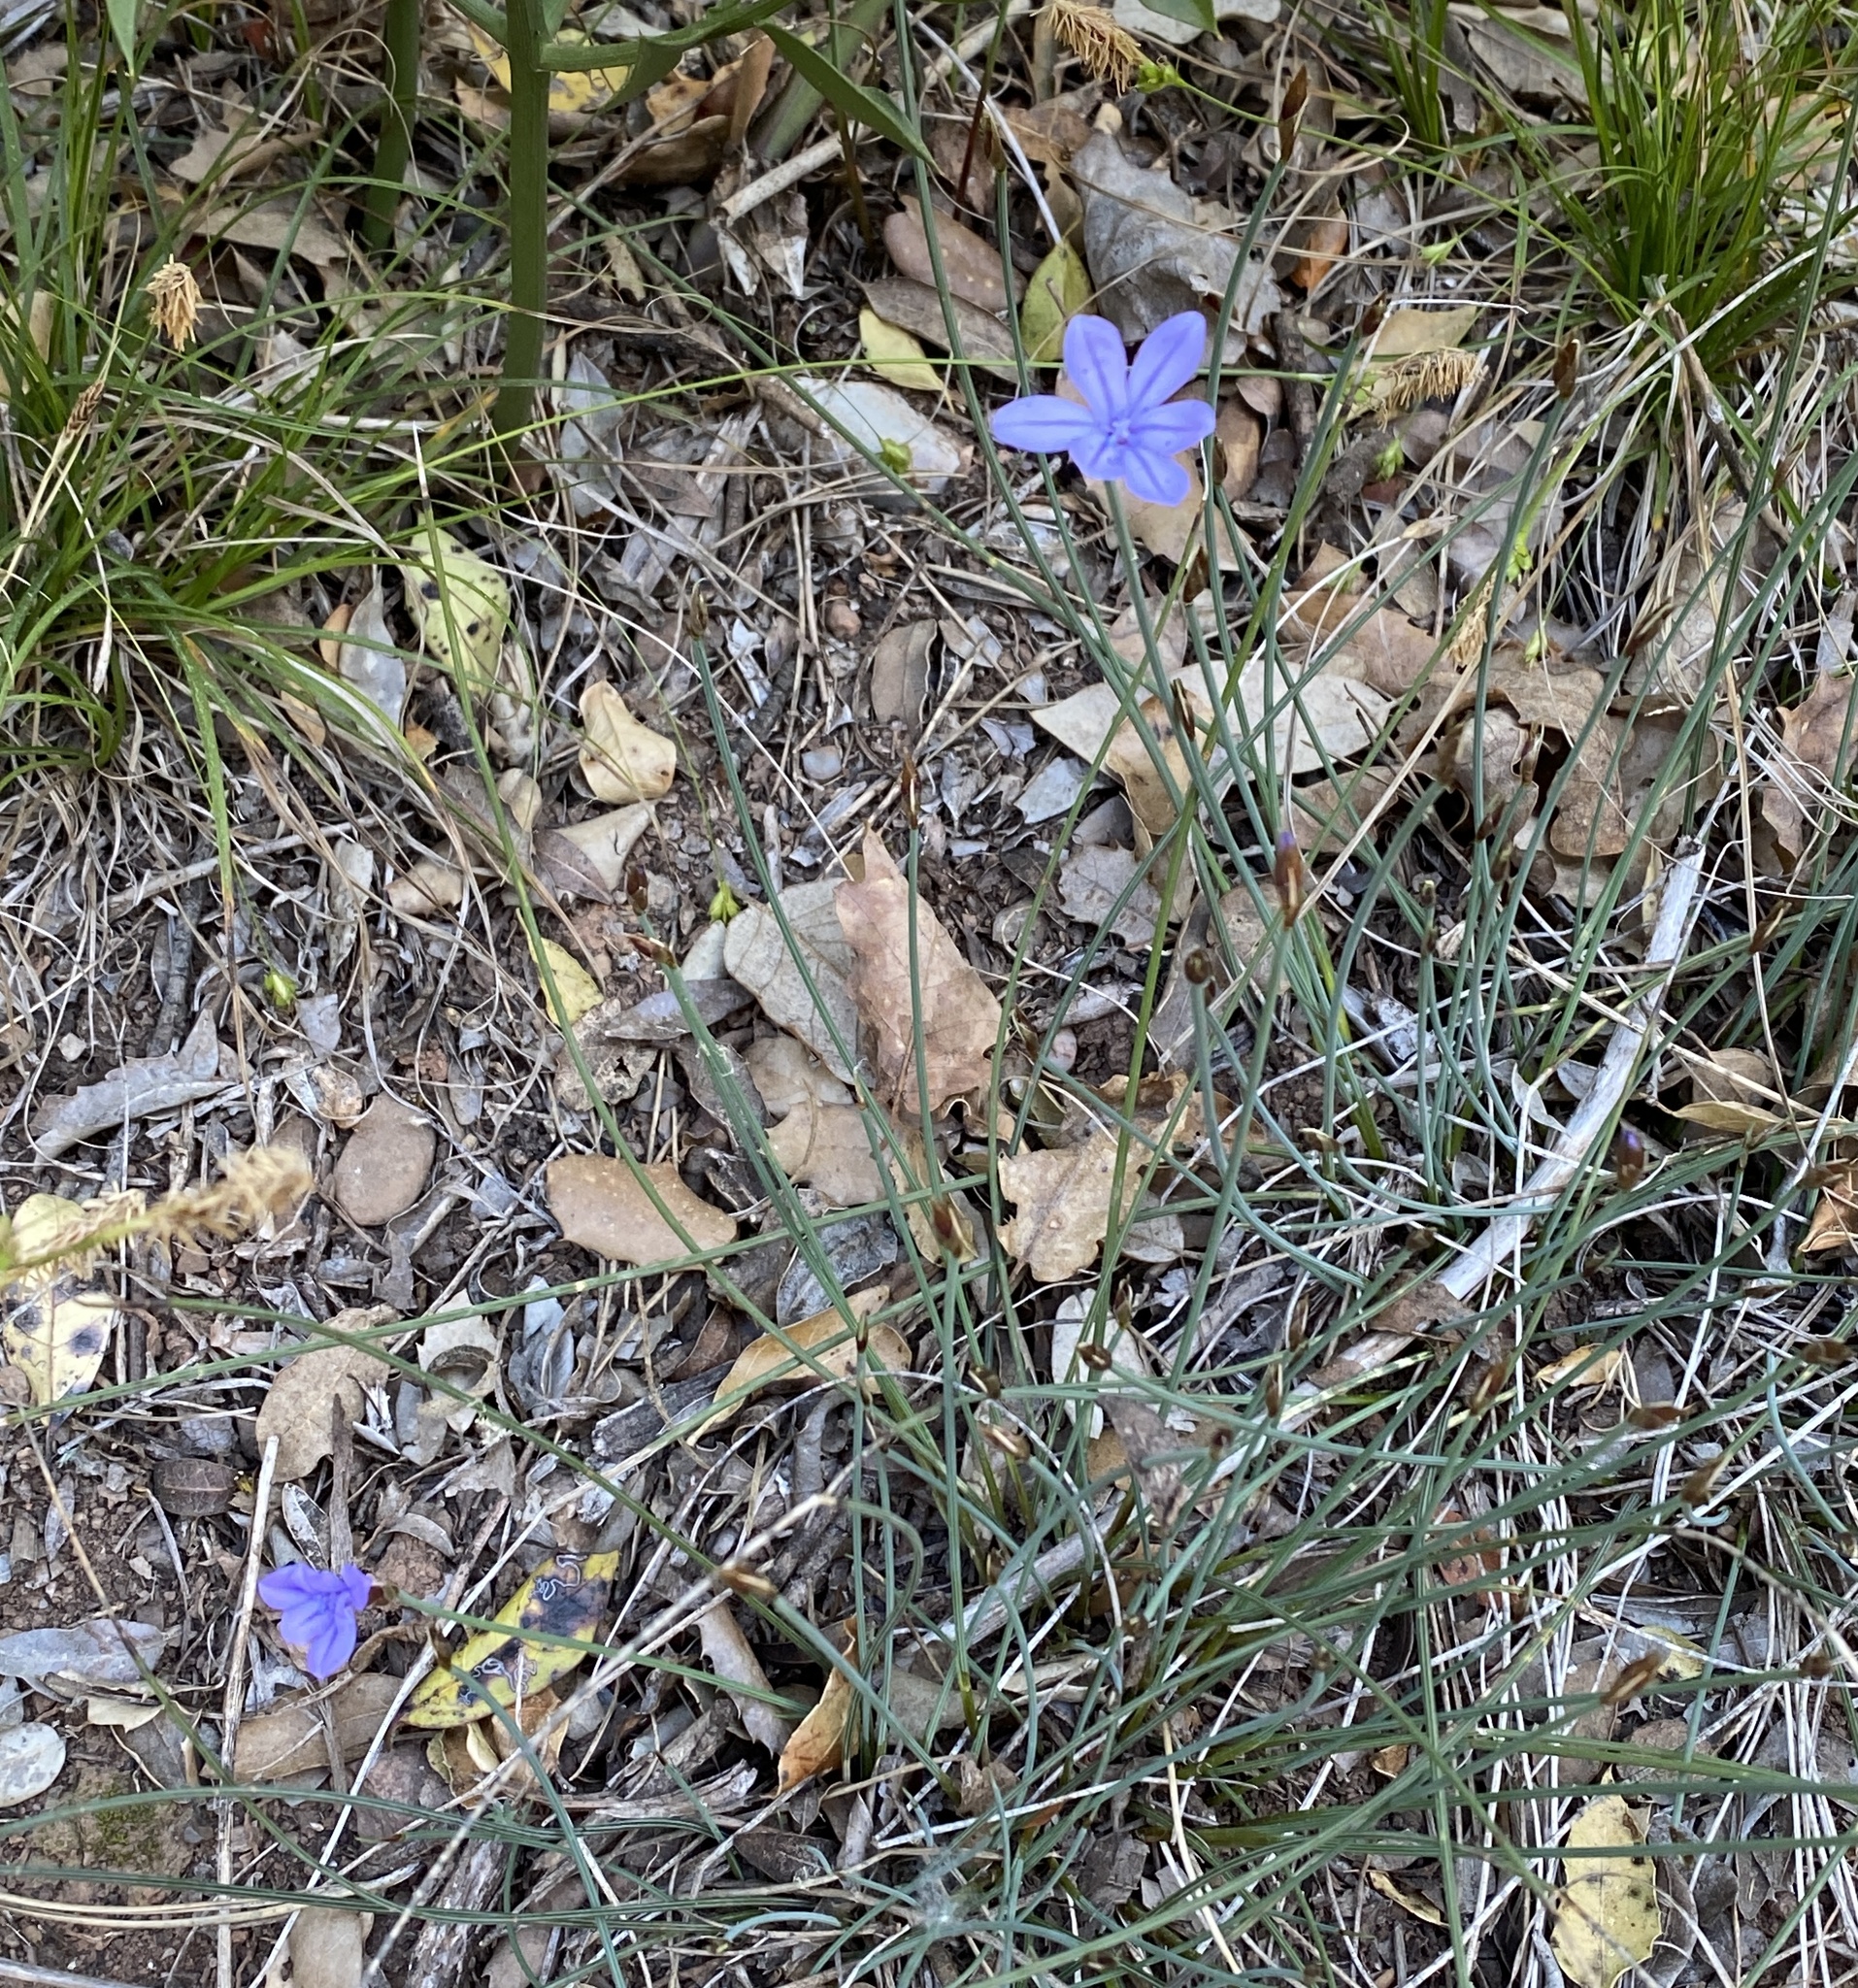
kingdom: Plantae
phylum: Tracheophyta
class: Liliopsida
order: Asparagales
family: Asparagaceae
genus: Aphyllanthes
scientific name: Aphyllanthes monspeliensis
